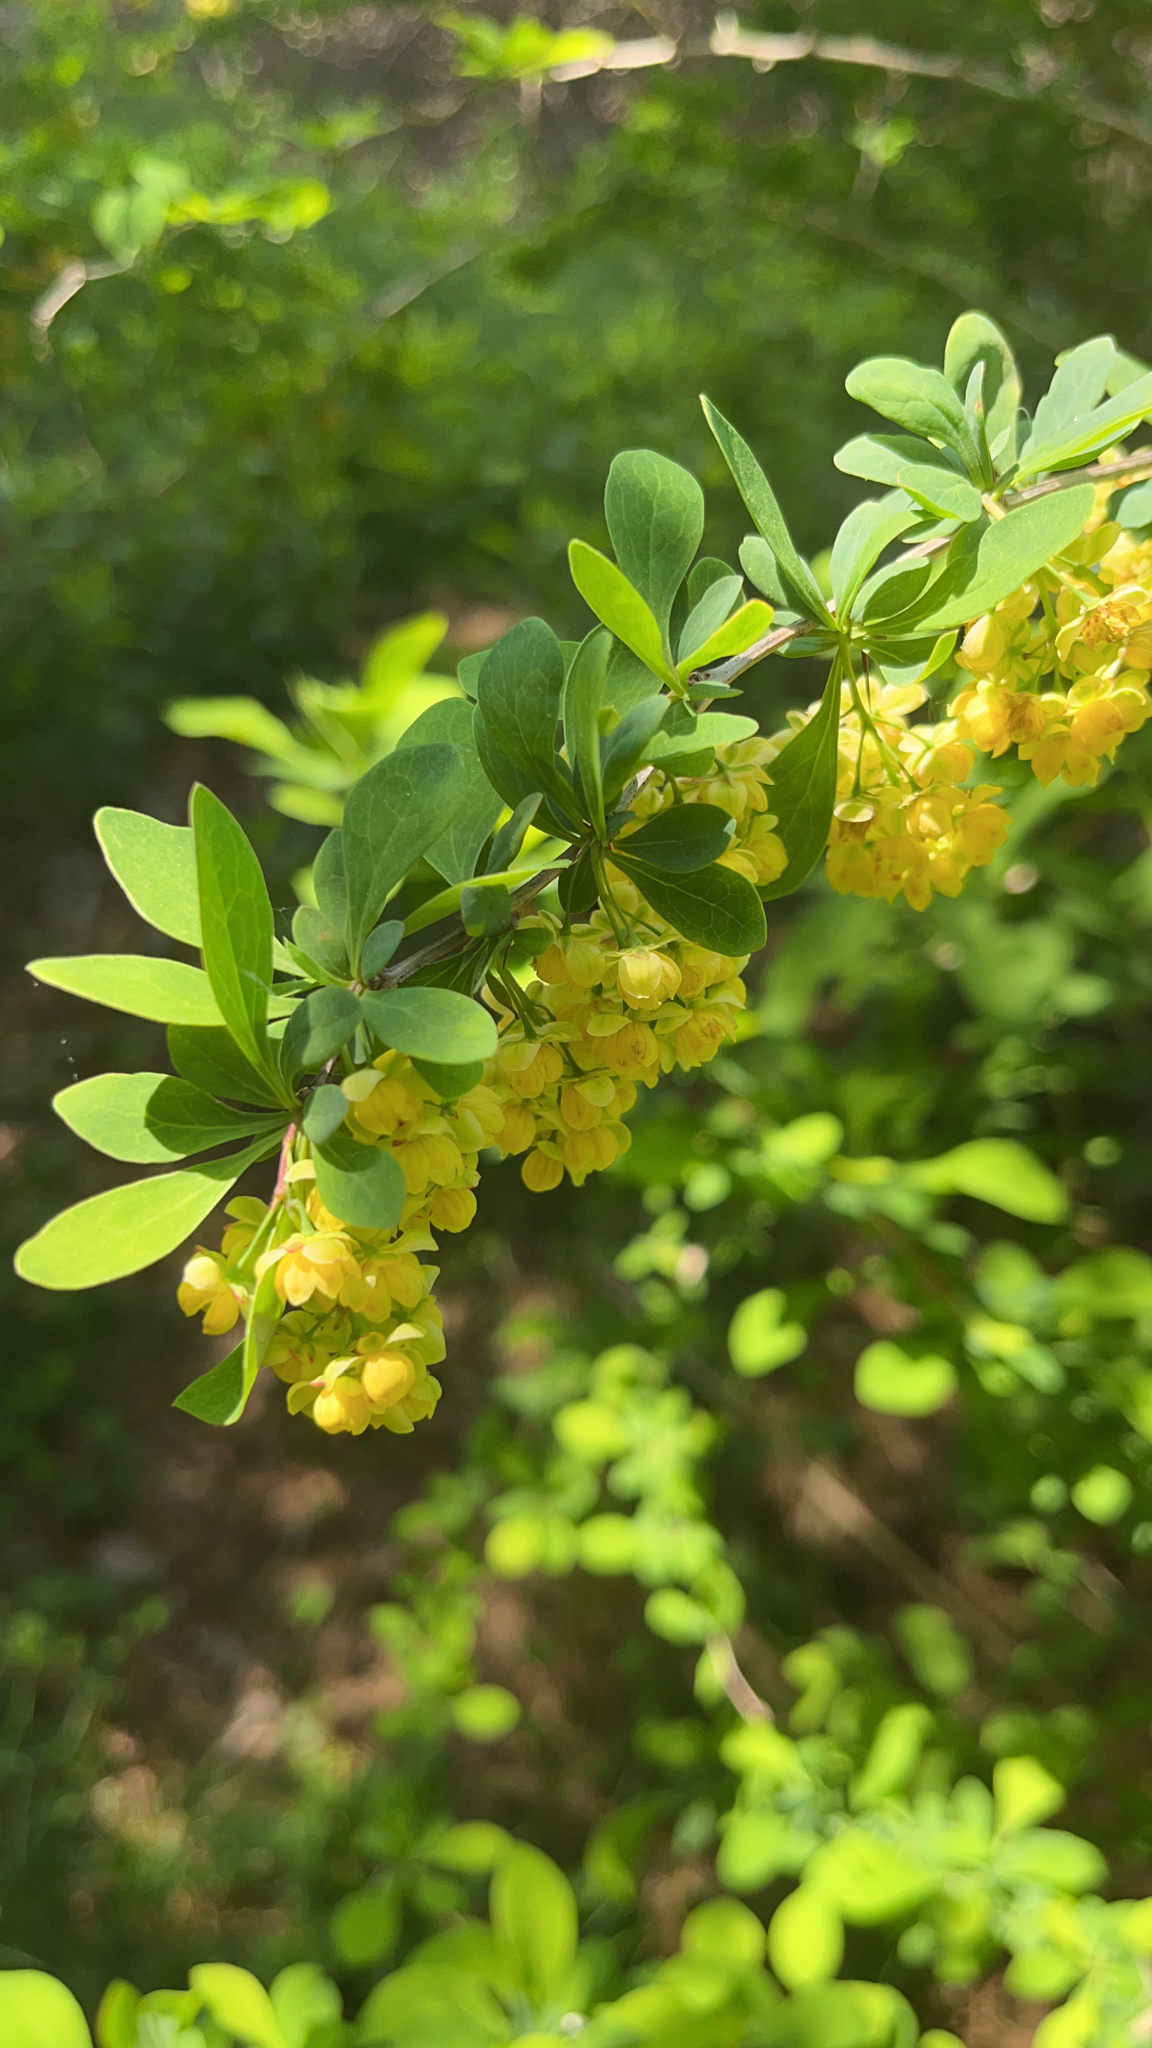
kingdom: Plantae
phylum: Tracheophyta
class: Magnoliopsida
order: Ranunculales
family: Berberidaceae
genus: Berberis
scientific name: Berberis ottawensis
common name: Ottawa barberry
